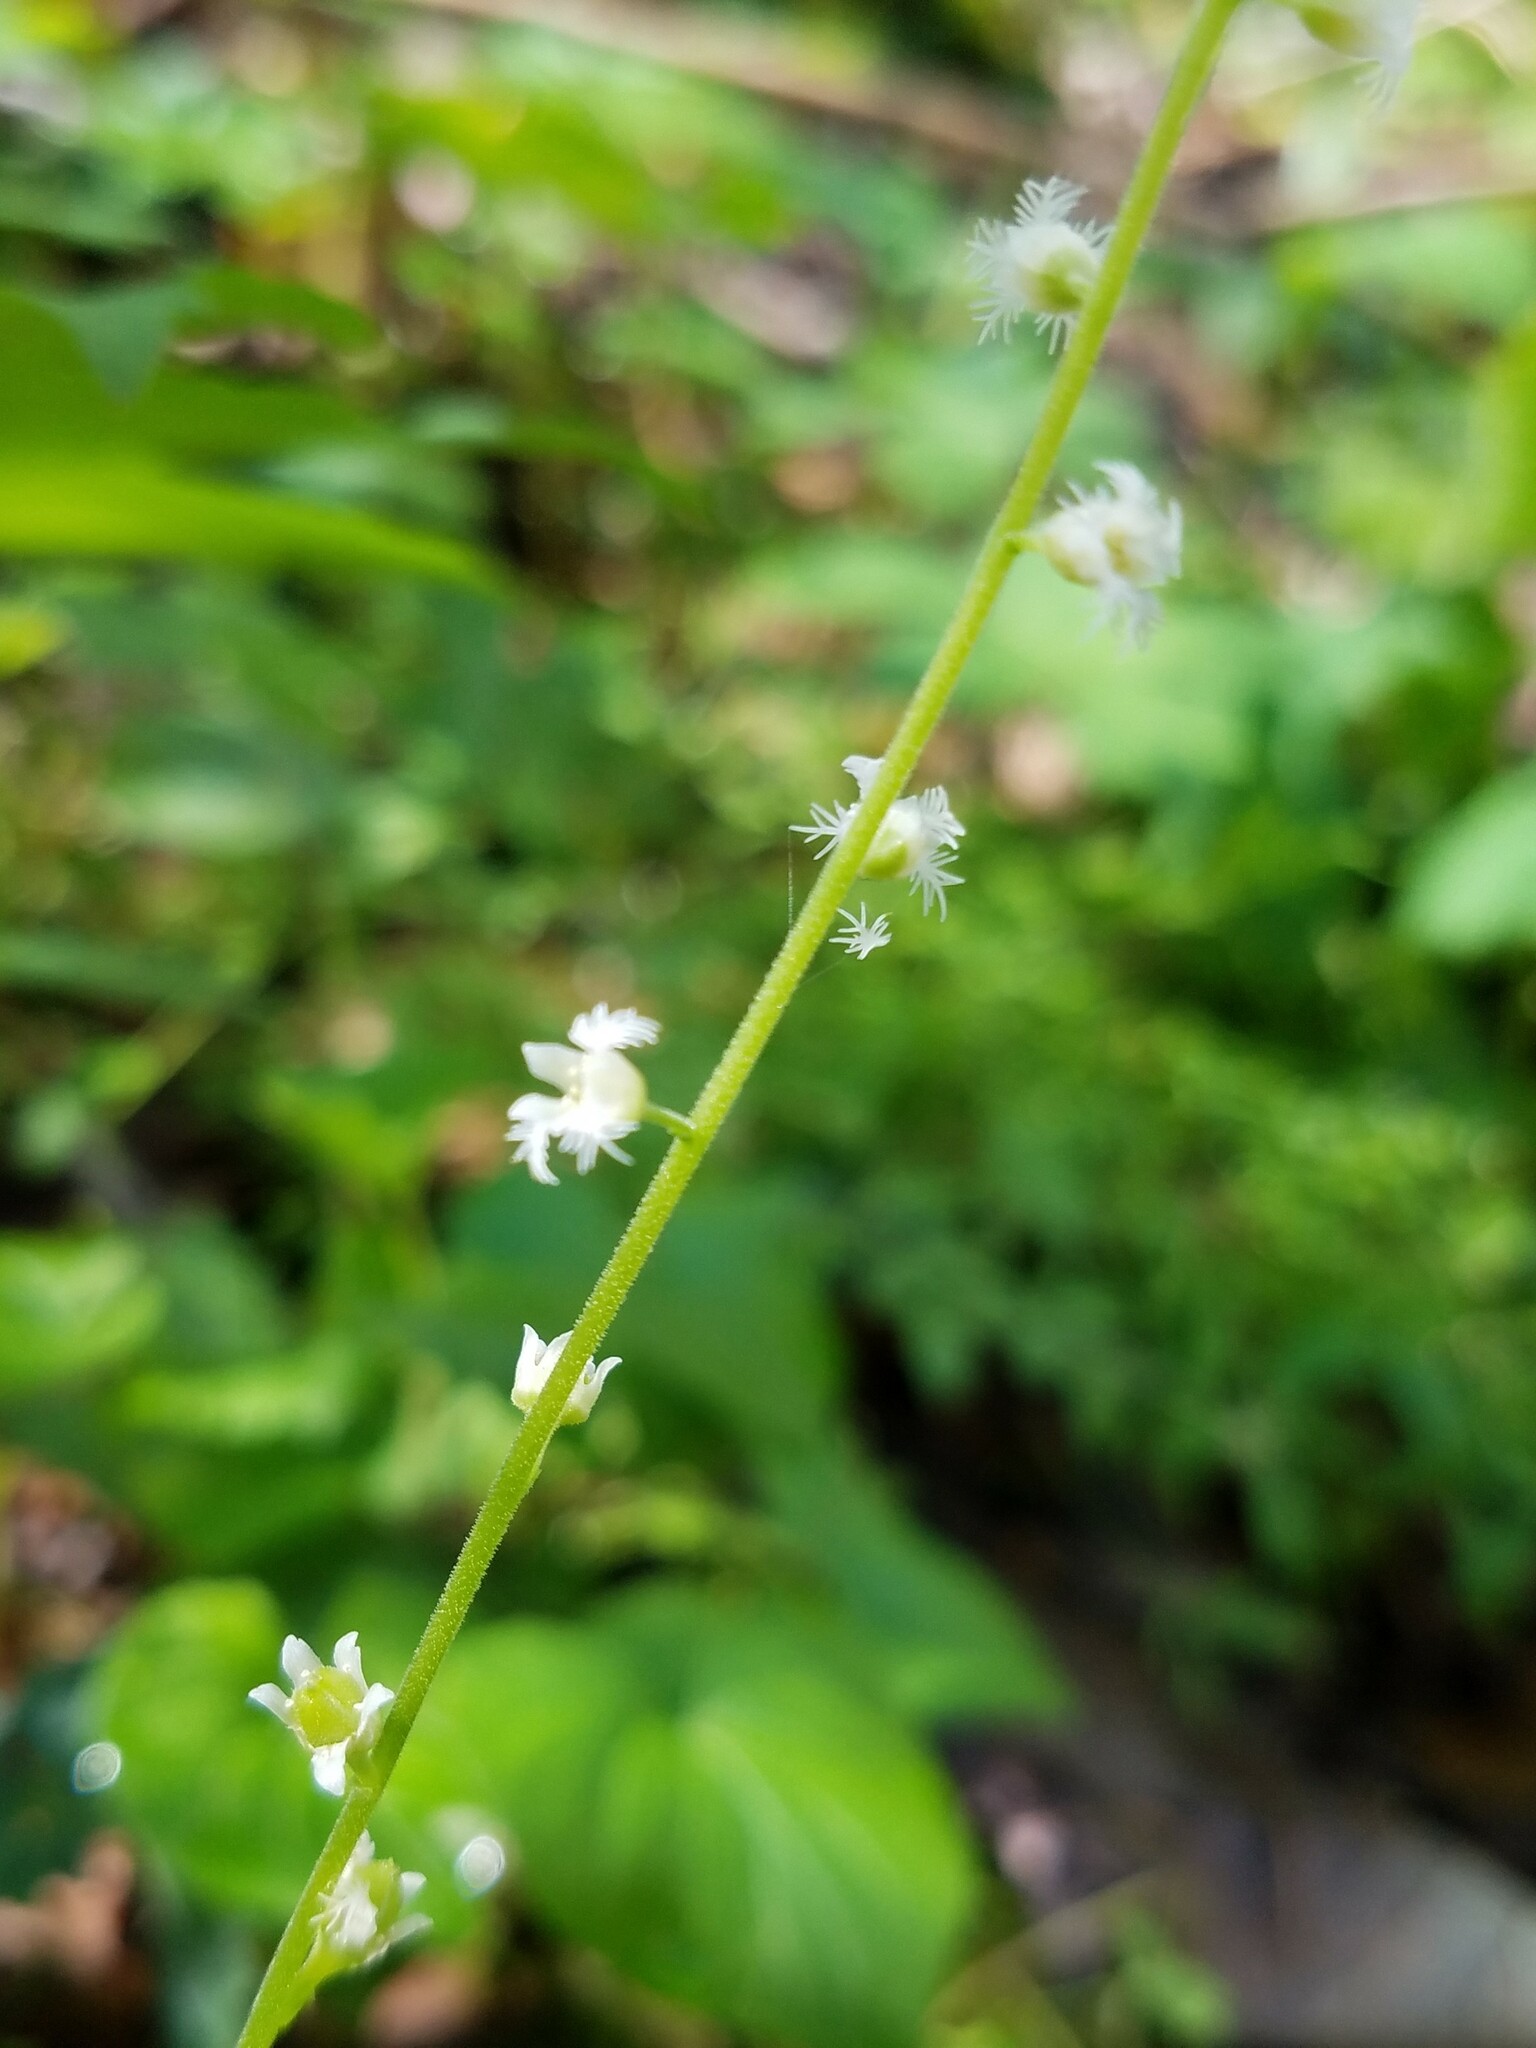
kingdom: Plantae
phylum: Tracheophyta
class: Magnoliopsida
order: Saxifragales
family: Saxifragaceae
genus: Mitella
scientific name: Mitella diphylla
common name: Coolwort
